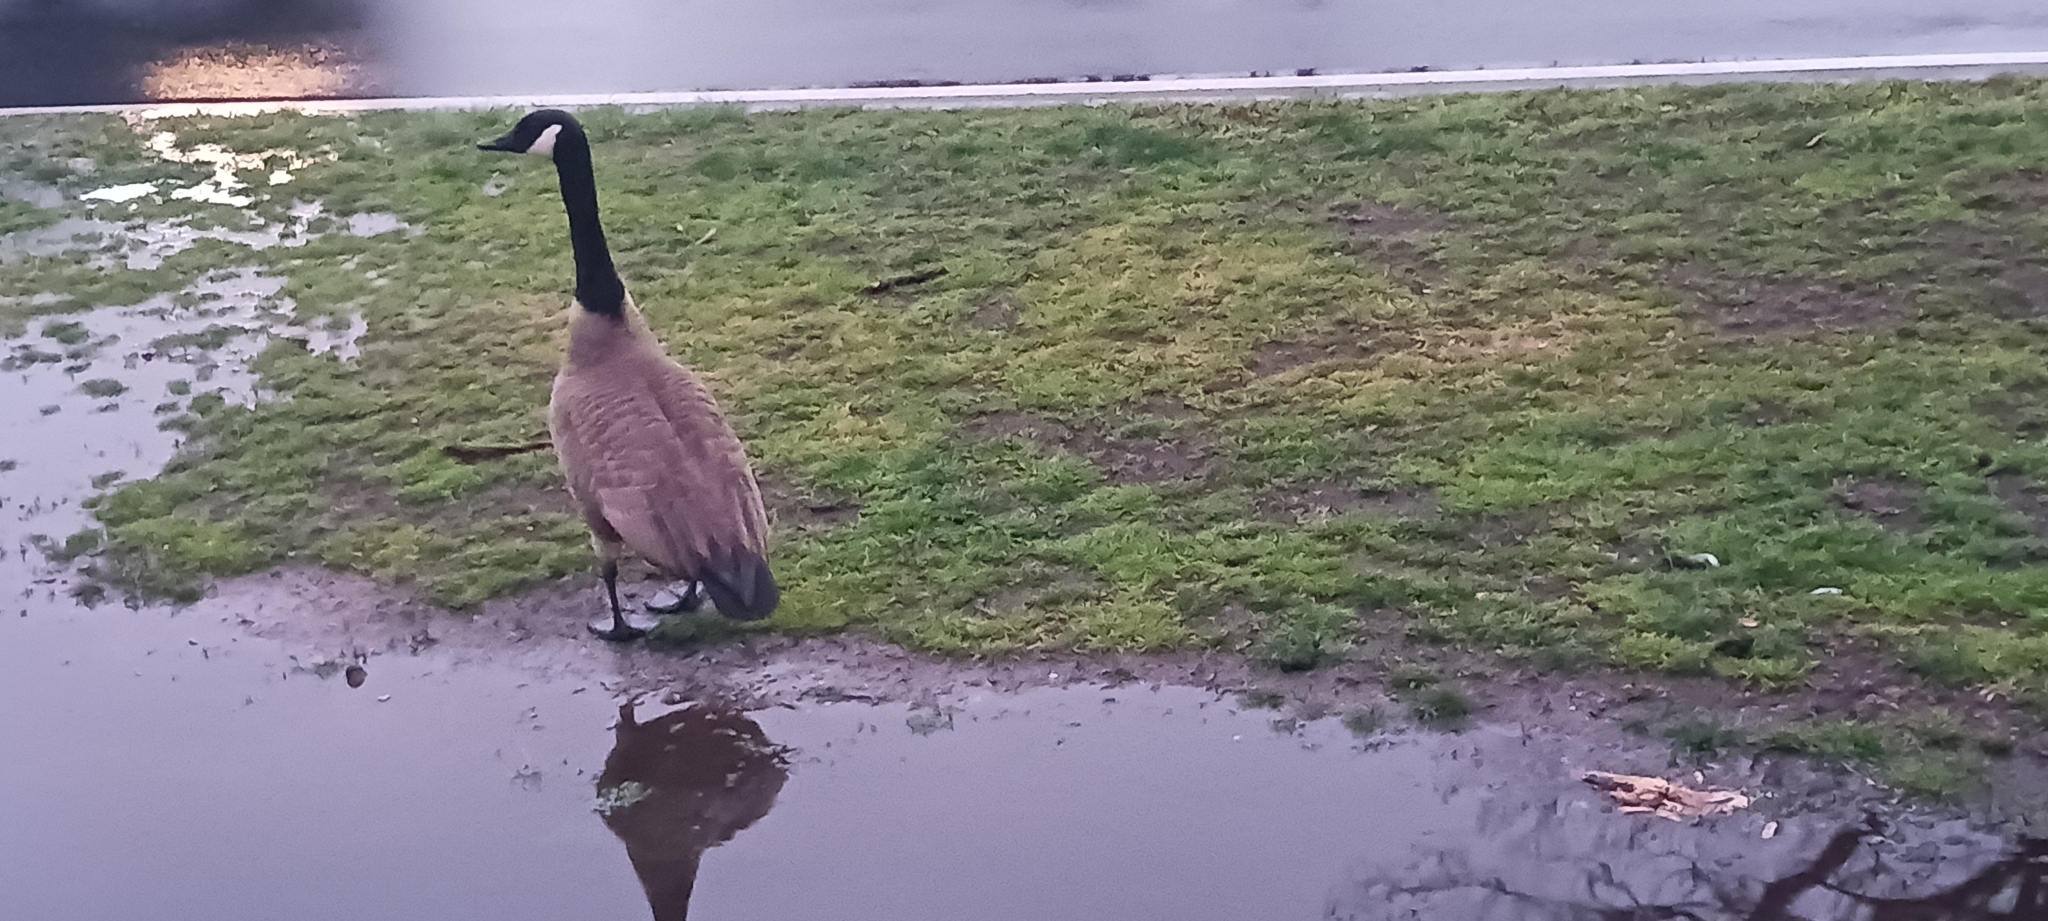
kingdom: Animalia
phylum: Chordata
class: Aves
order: Anseriformes
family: Anatidae
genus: Branta
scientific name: Branta canadensis
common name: Canada goose
